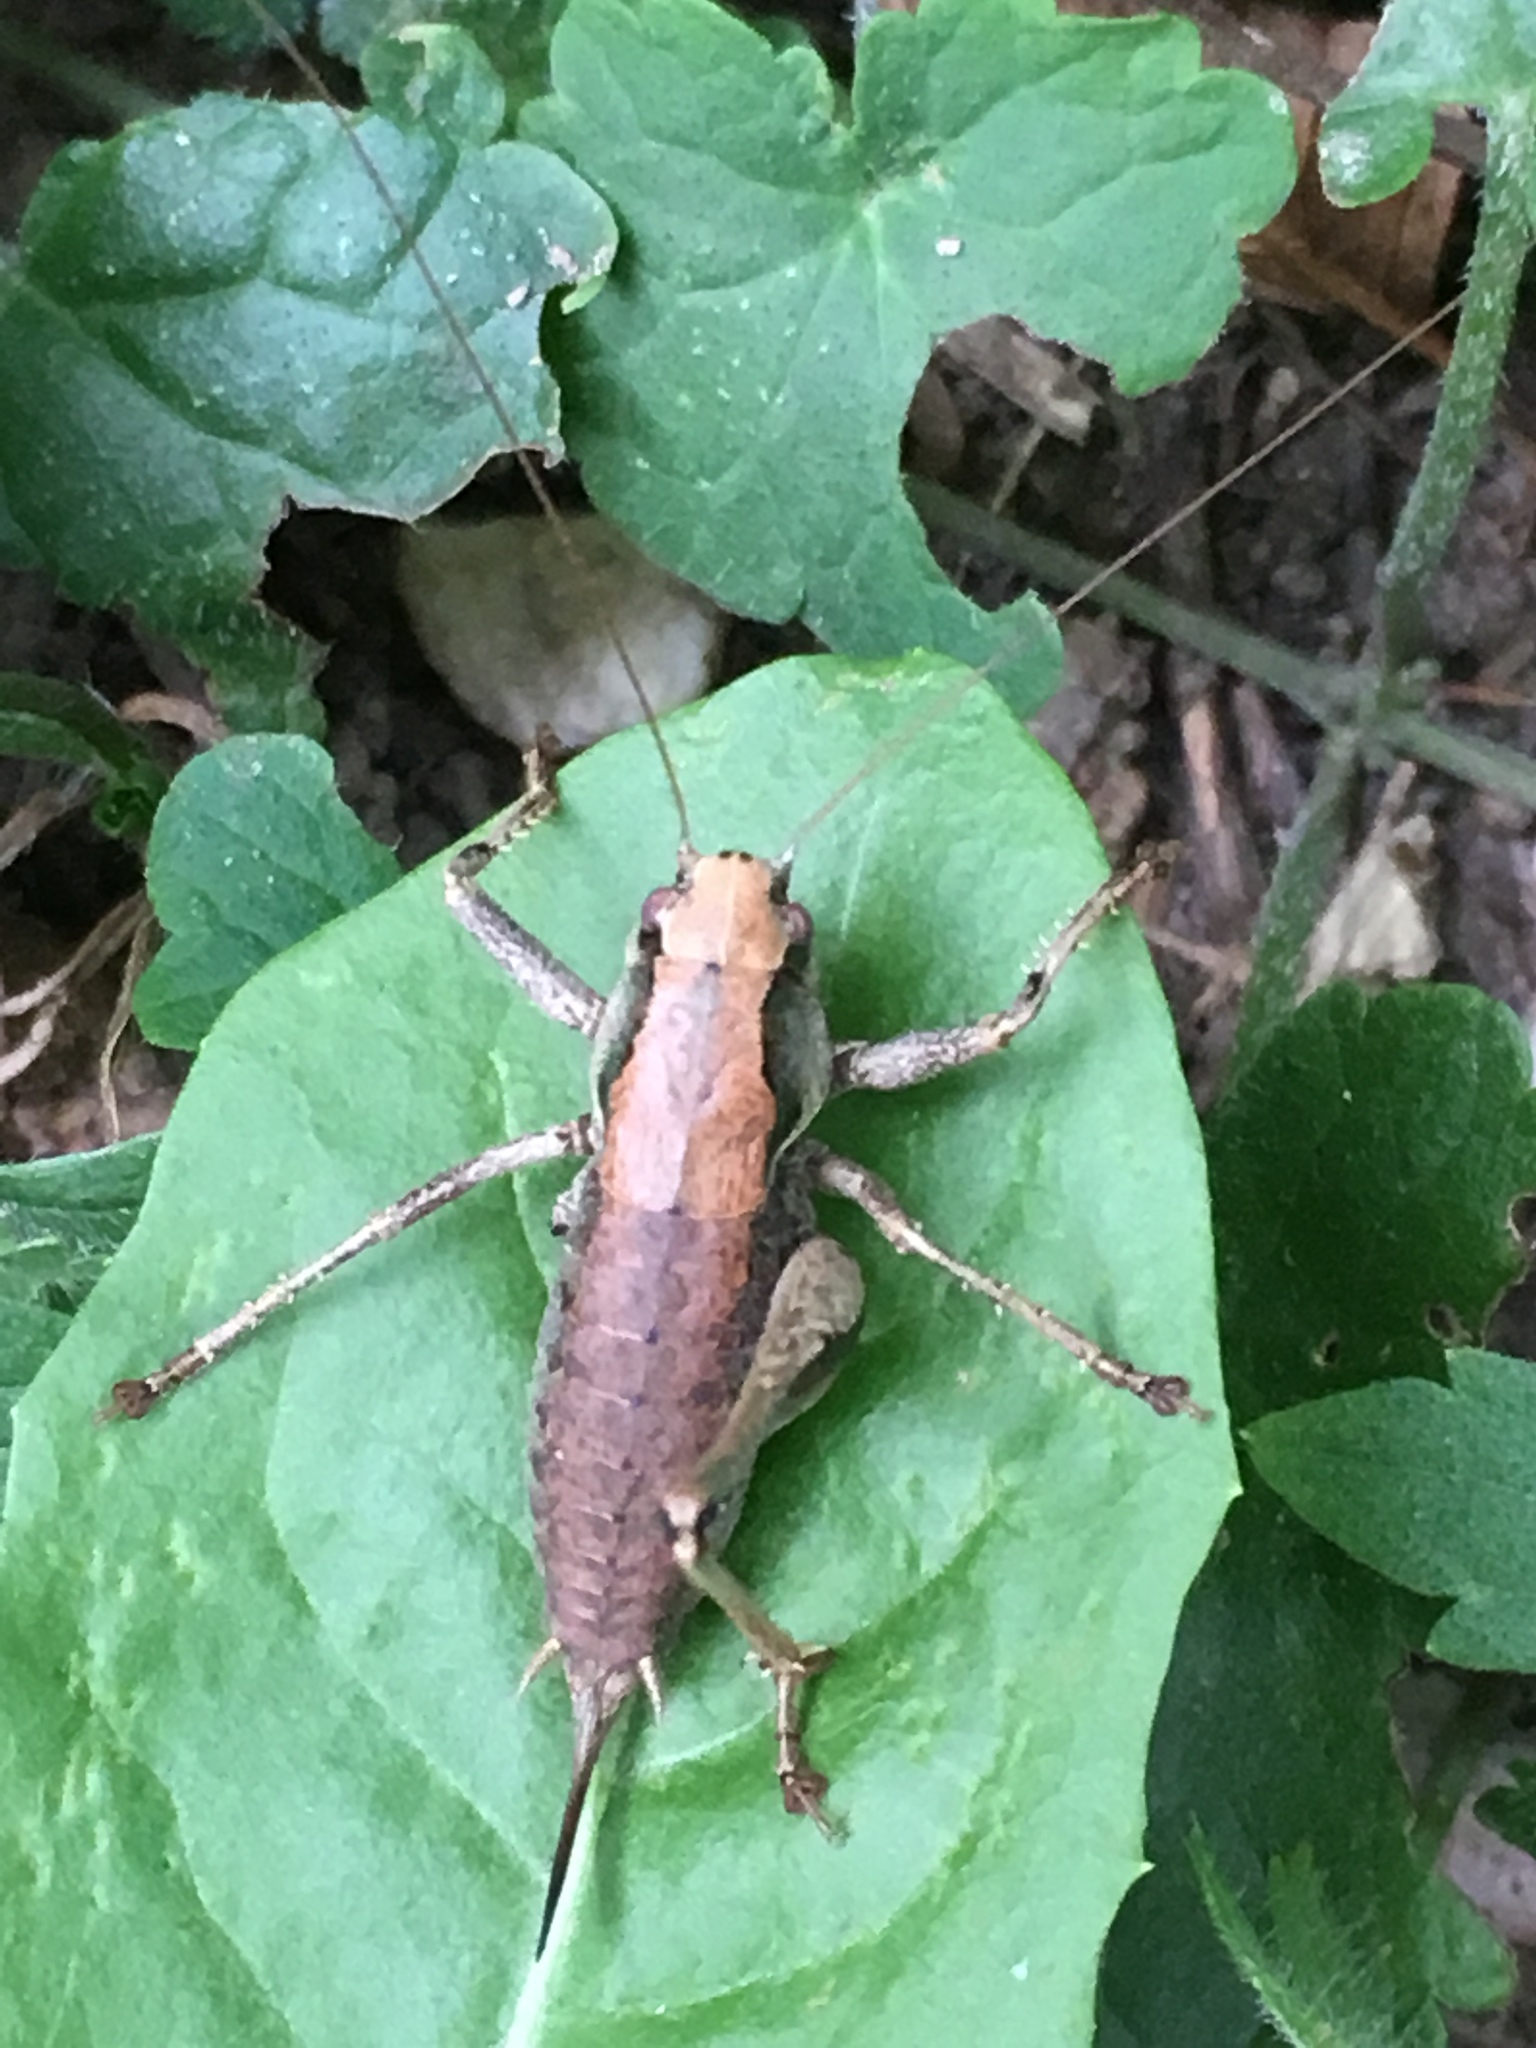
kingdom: Animalia
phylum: Arthropoda
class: Insecta
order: Orthoptera
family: Tettigoniidae
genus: Pholidoptera
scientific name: Pholidoptera griseoaptera
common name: Dark bush-cricket
